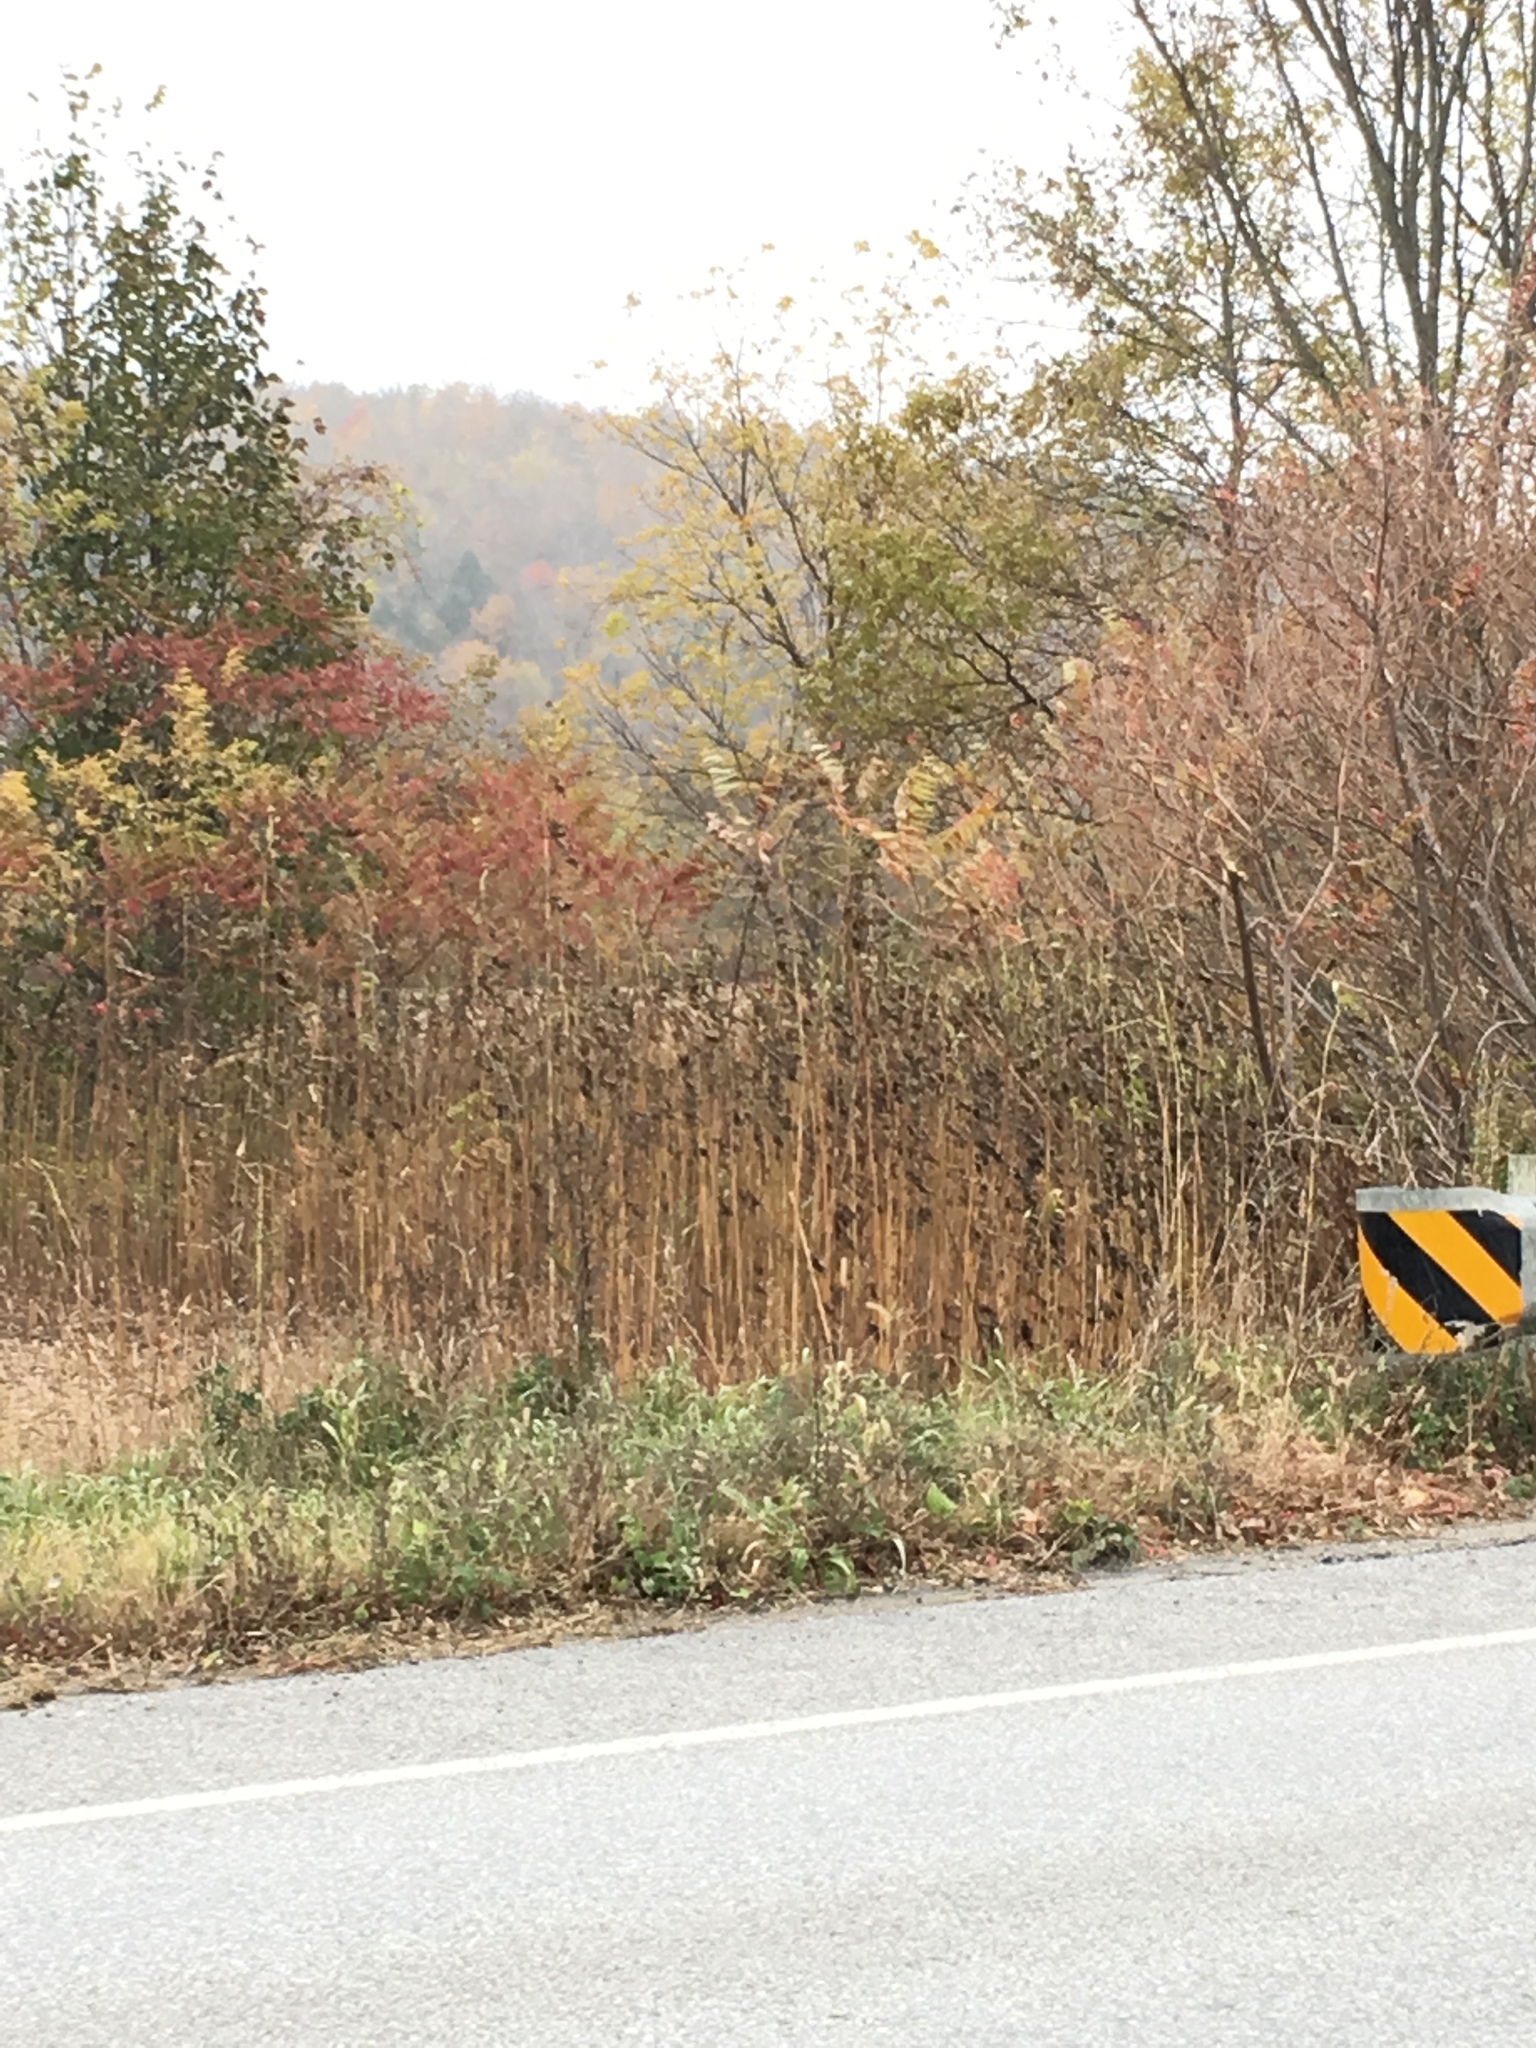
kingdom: Plantae
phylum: Tracheophyta
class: Magnoliopsida
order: Sapindales
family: Anacardiaceae
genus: Rhus
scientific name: Rhus typhina
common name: Staghorn sumac
